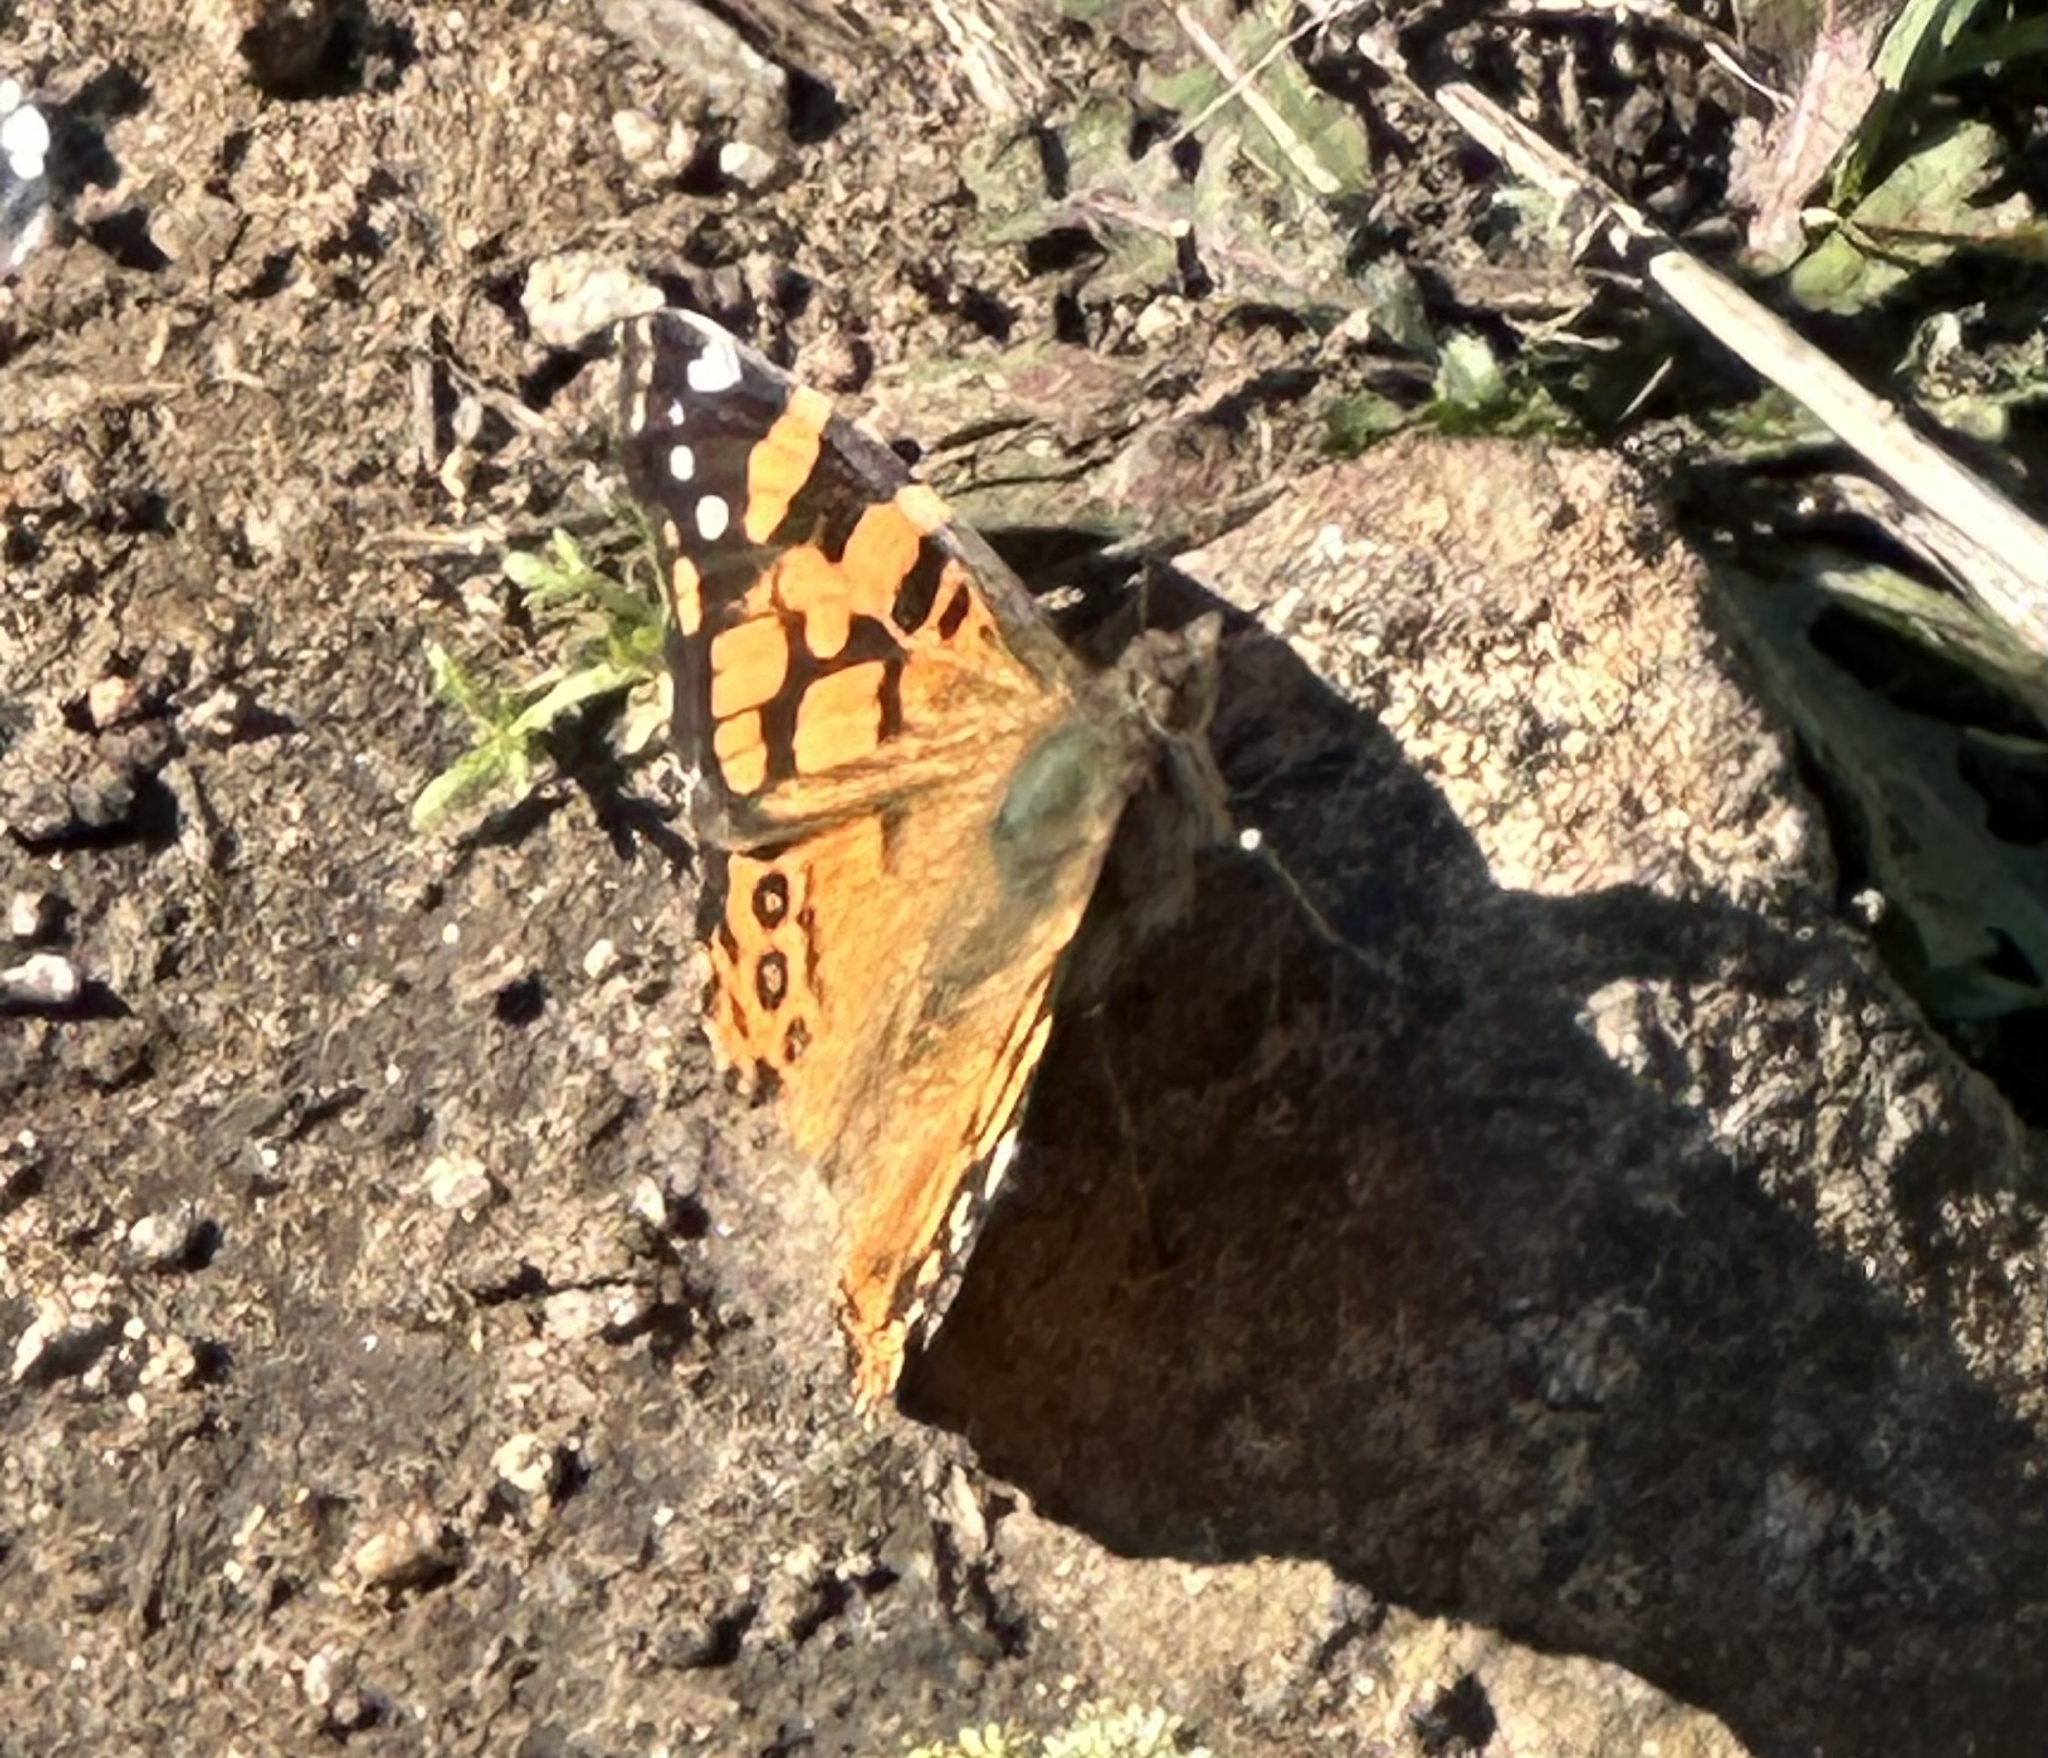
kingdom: Animalia
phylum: Arthropoda
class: Insecta
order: Lepidoptera
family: Nymphalidae
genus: Vanessa
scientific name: Vanessa annabella
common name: West coast lady
